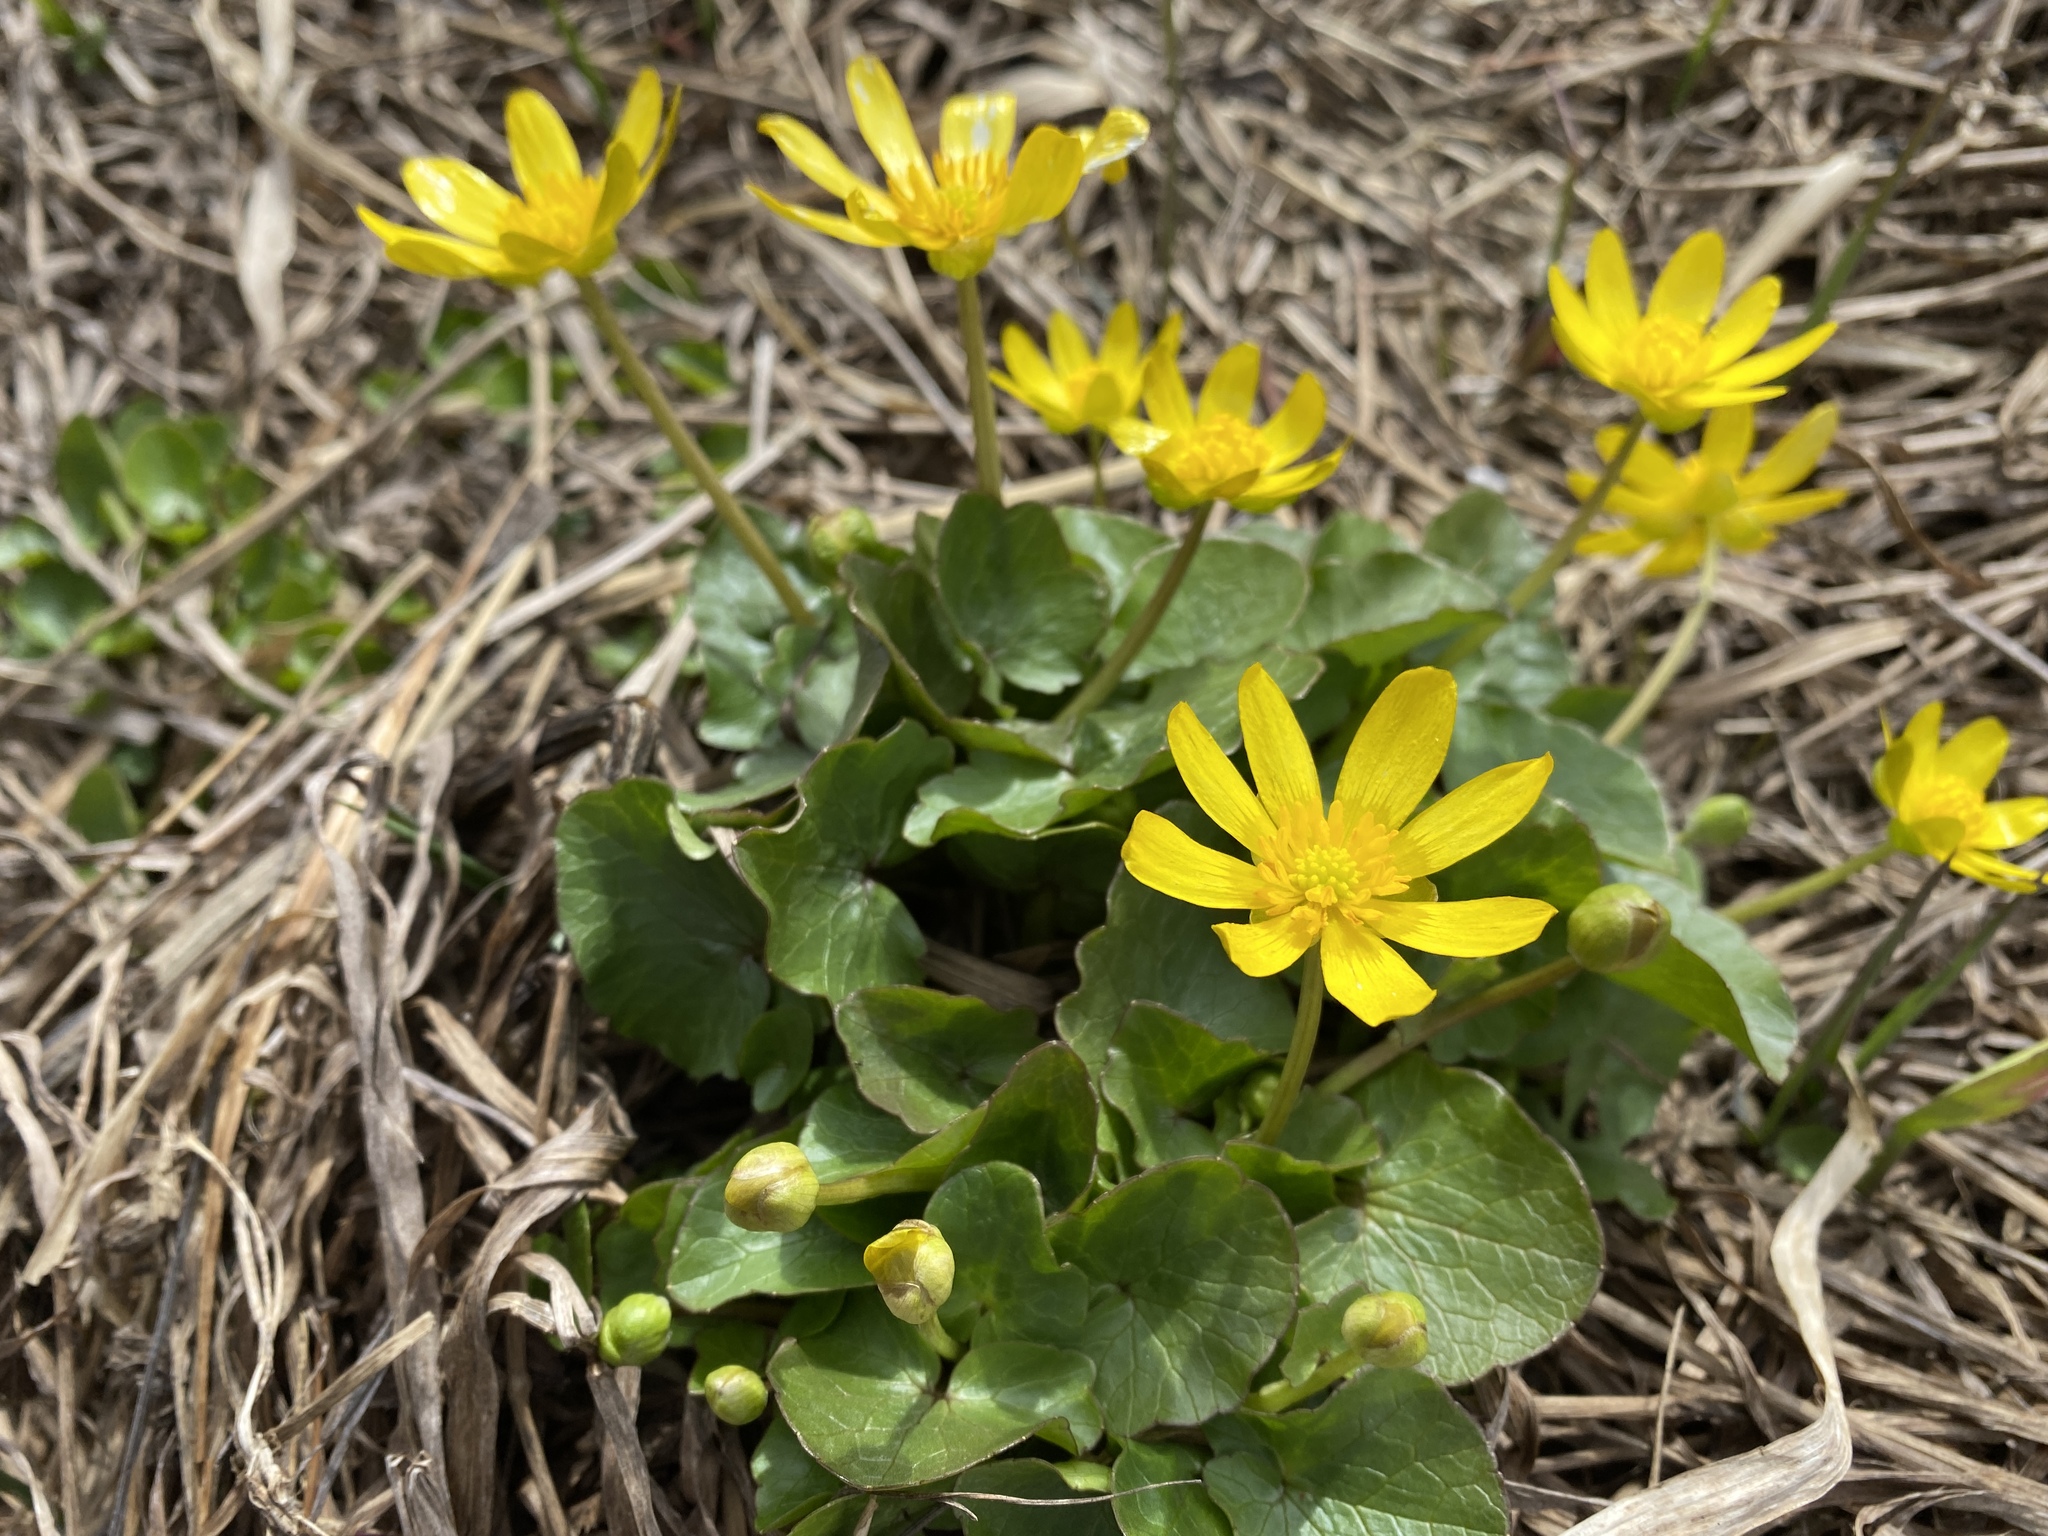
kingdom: Plantae
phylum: Tracheophyta
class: Magnoliopsida
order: Ranunculales
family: Ranunculaceae
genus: Ficaria
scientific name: Ficaria verna
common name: Lesser celandine
